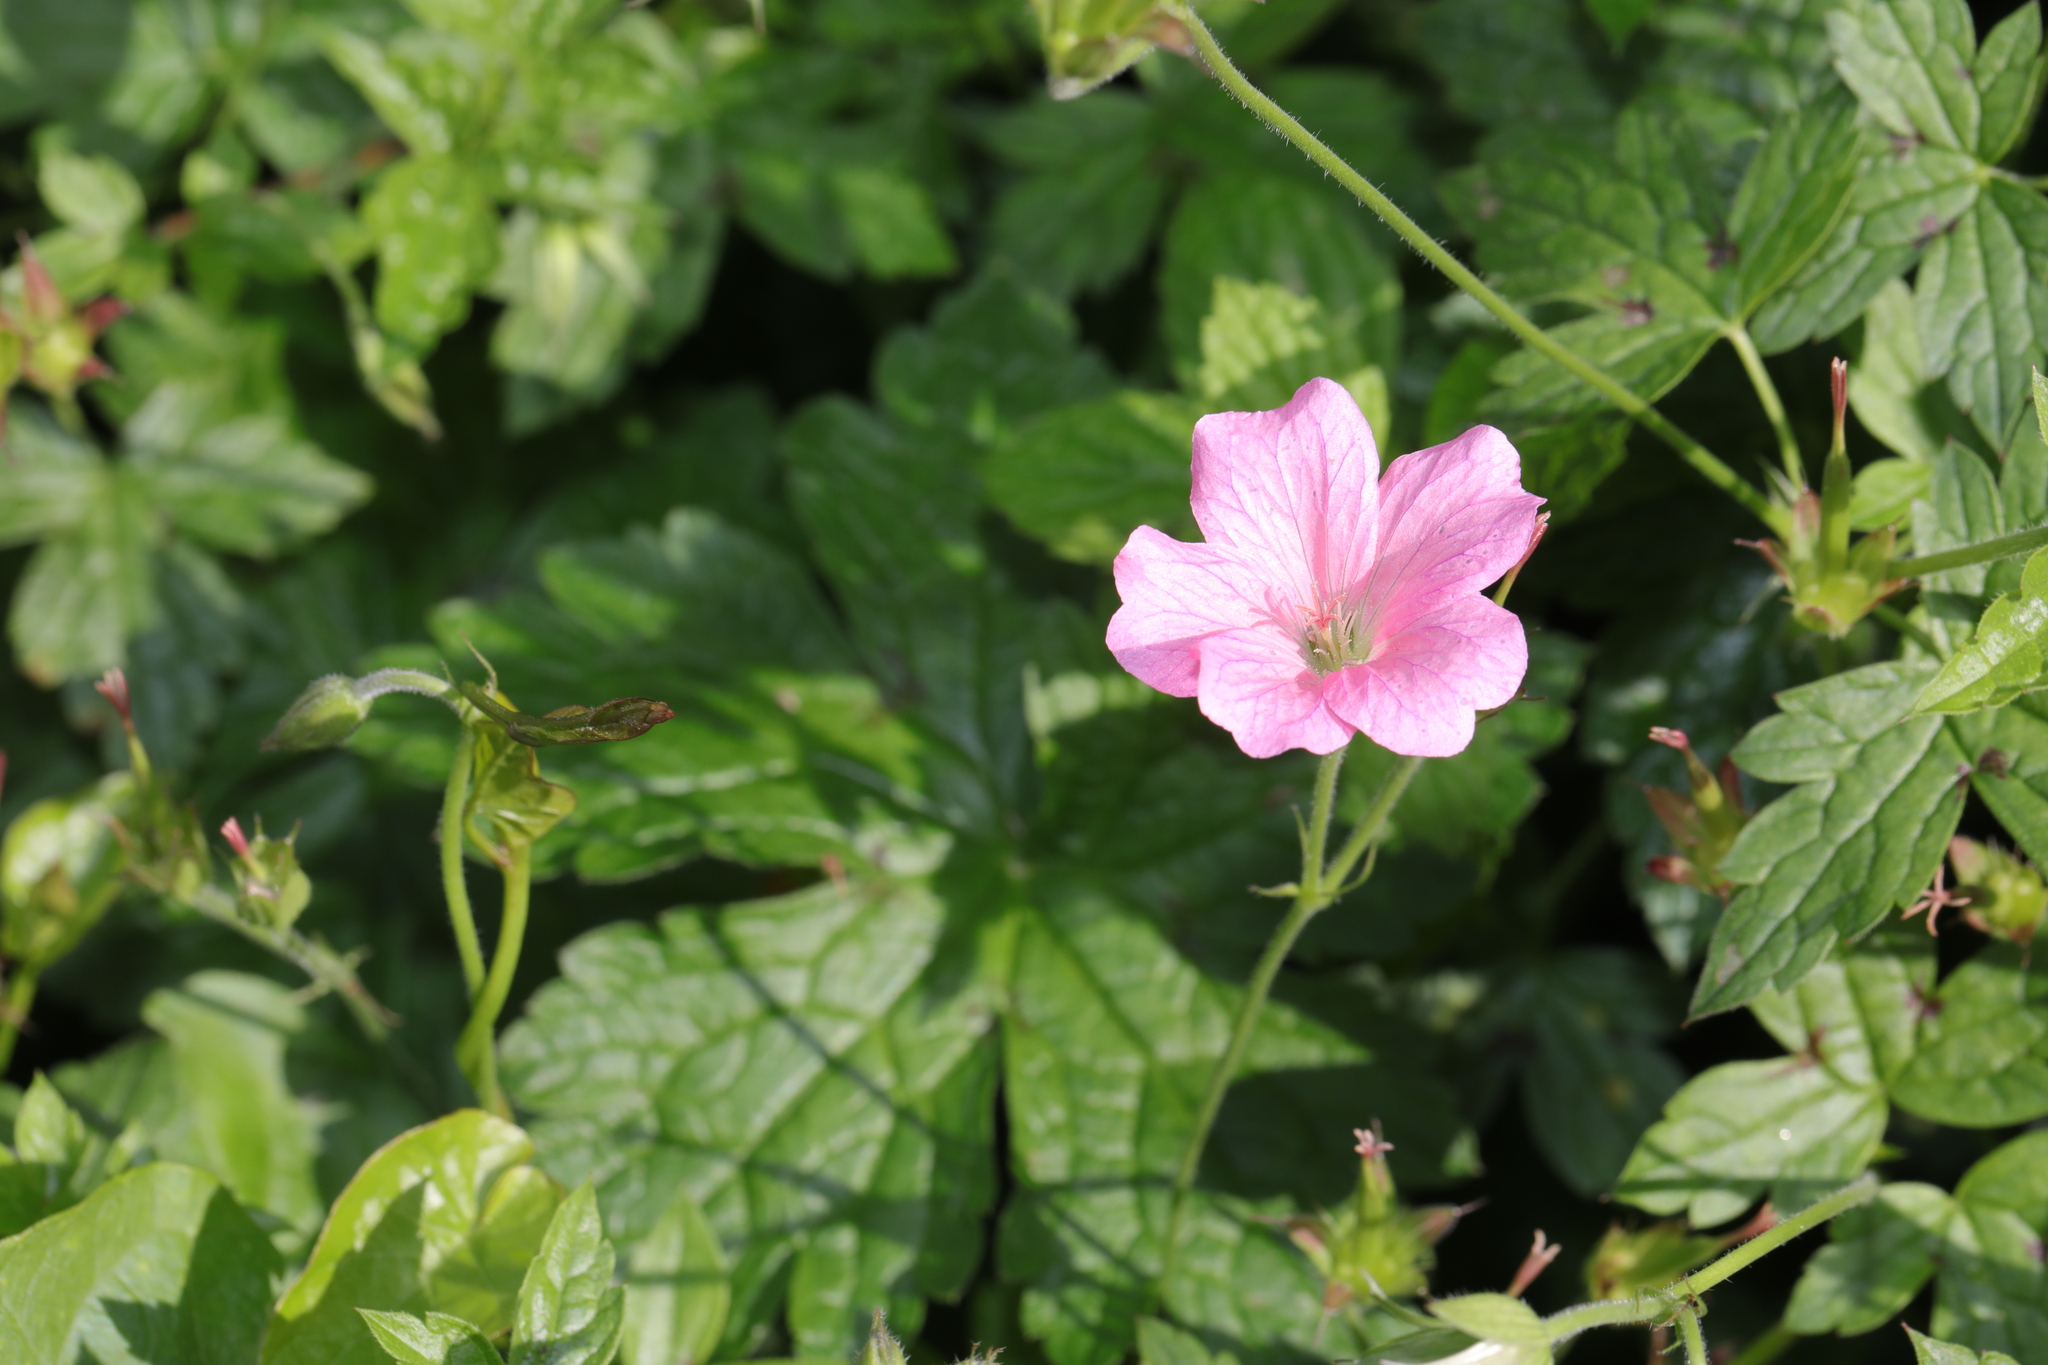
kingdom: Plantae
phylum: Tracheophyta
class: Magnoliopsida
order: Geraniales
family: Geraniaceae
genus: Geranium
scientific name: Geranium oxonianum
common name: Druce's crane's-bill
